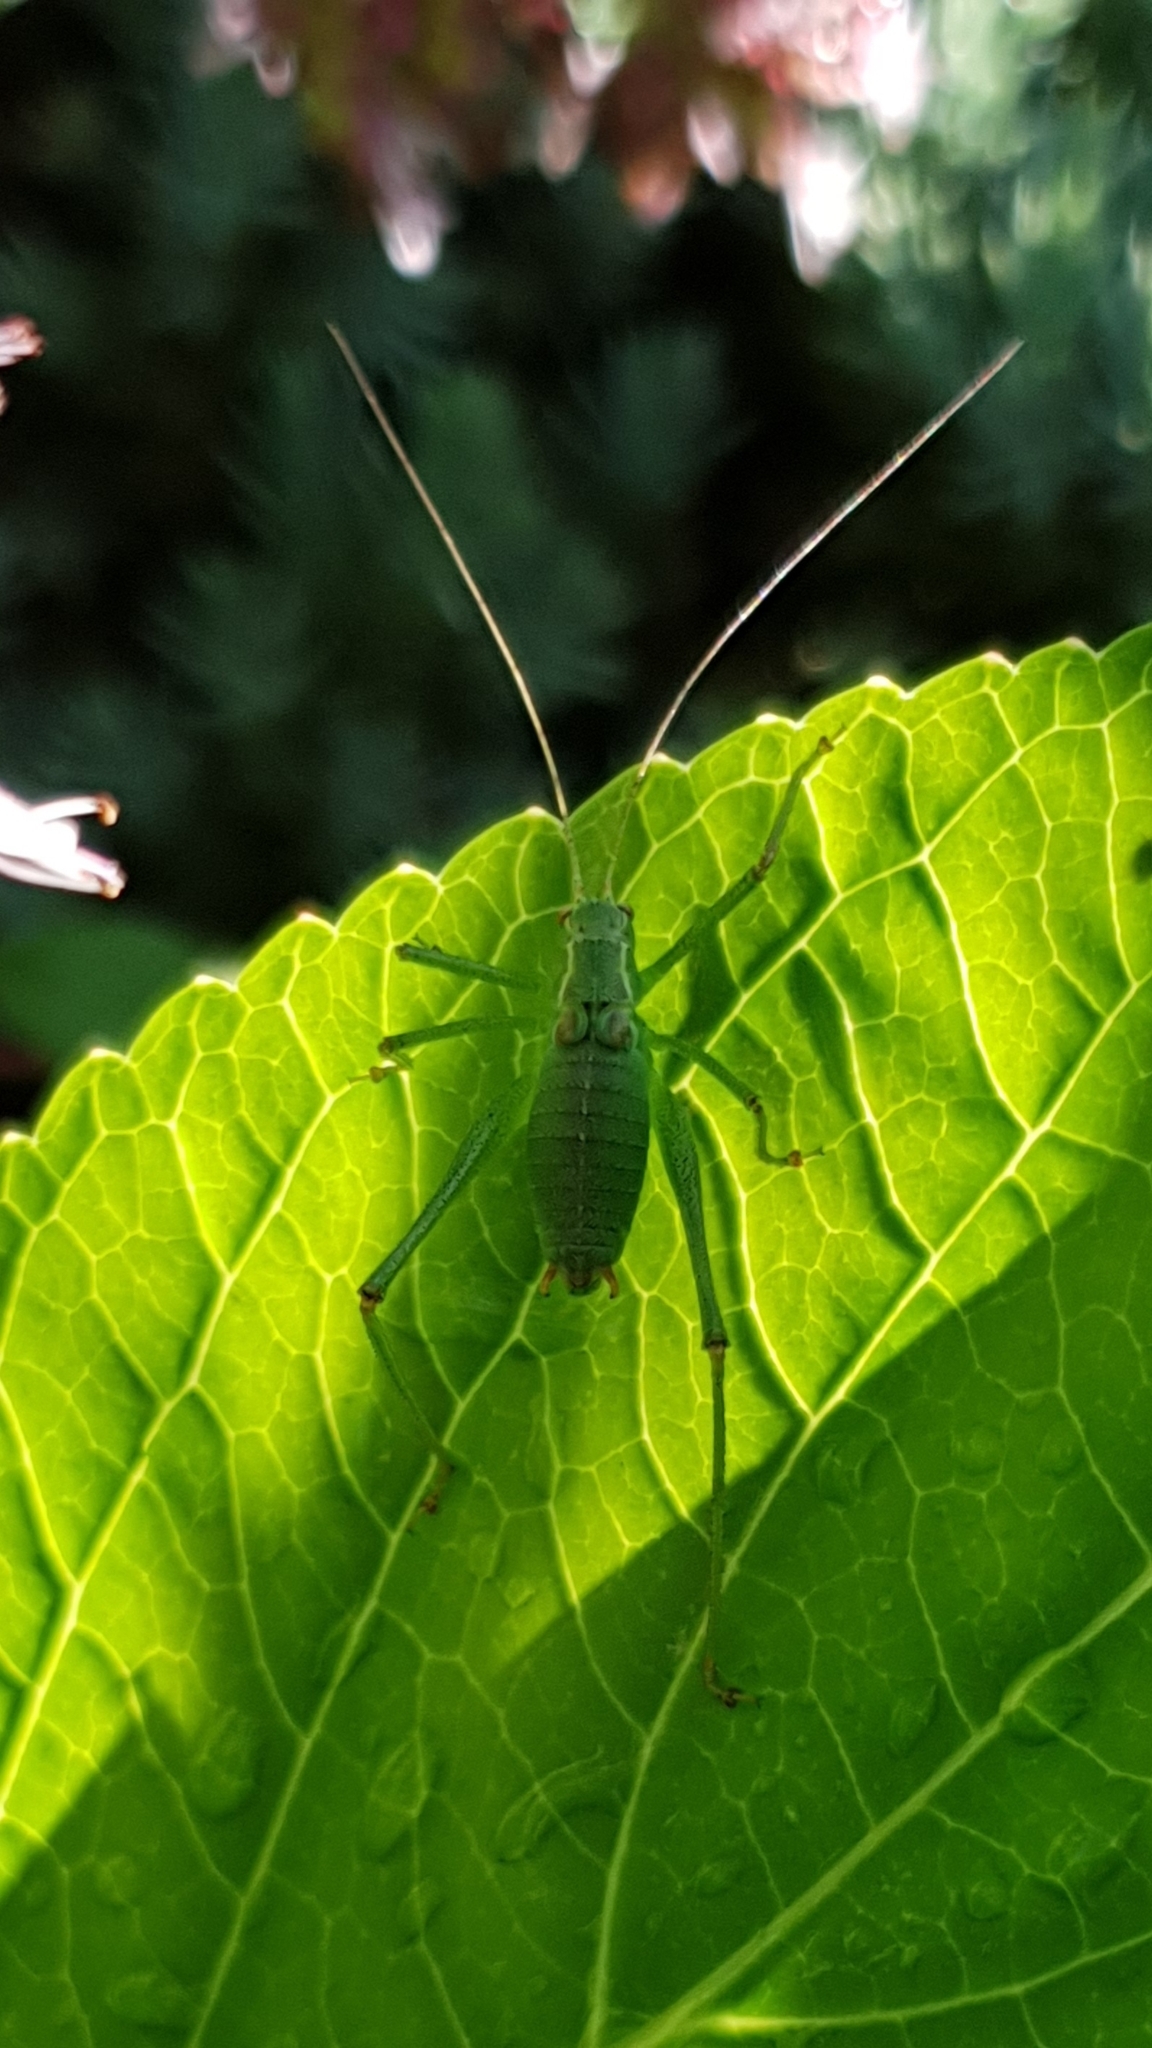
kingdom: Animalia
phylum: Arthropoda
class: Insecta
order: Orthoptera
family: Tettigoniidae
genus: Leptophyes
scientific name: Leptophyes punctatissima
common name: Speckled bush-cricket
